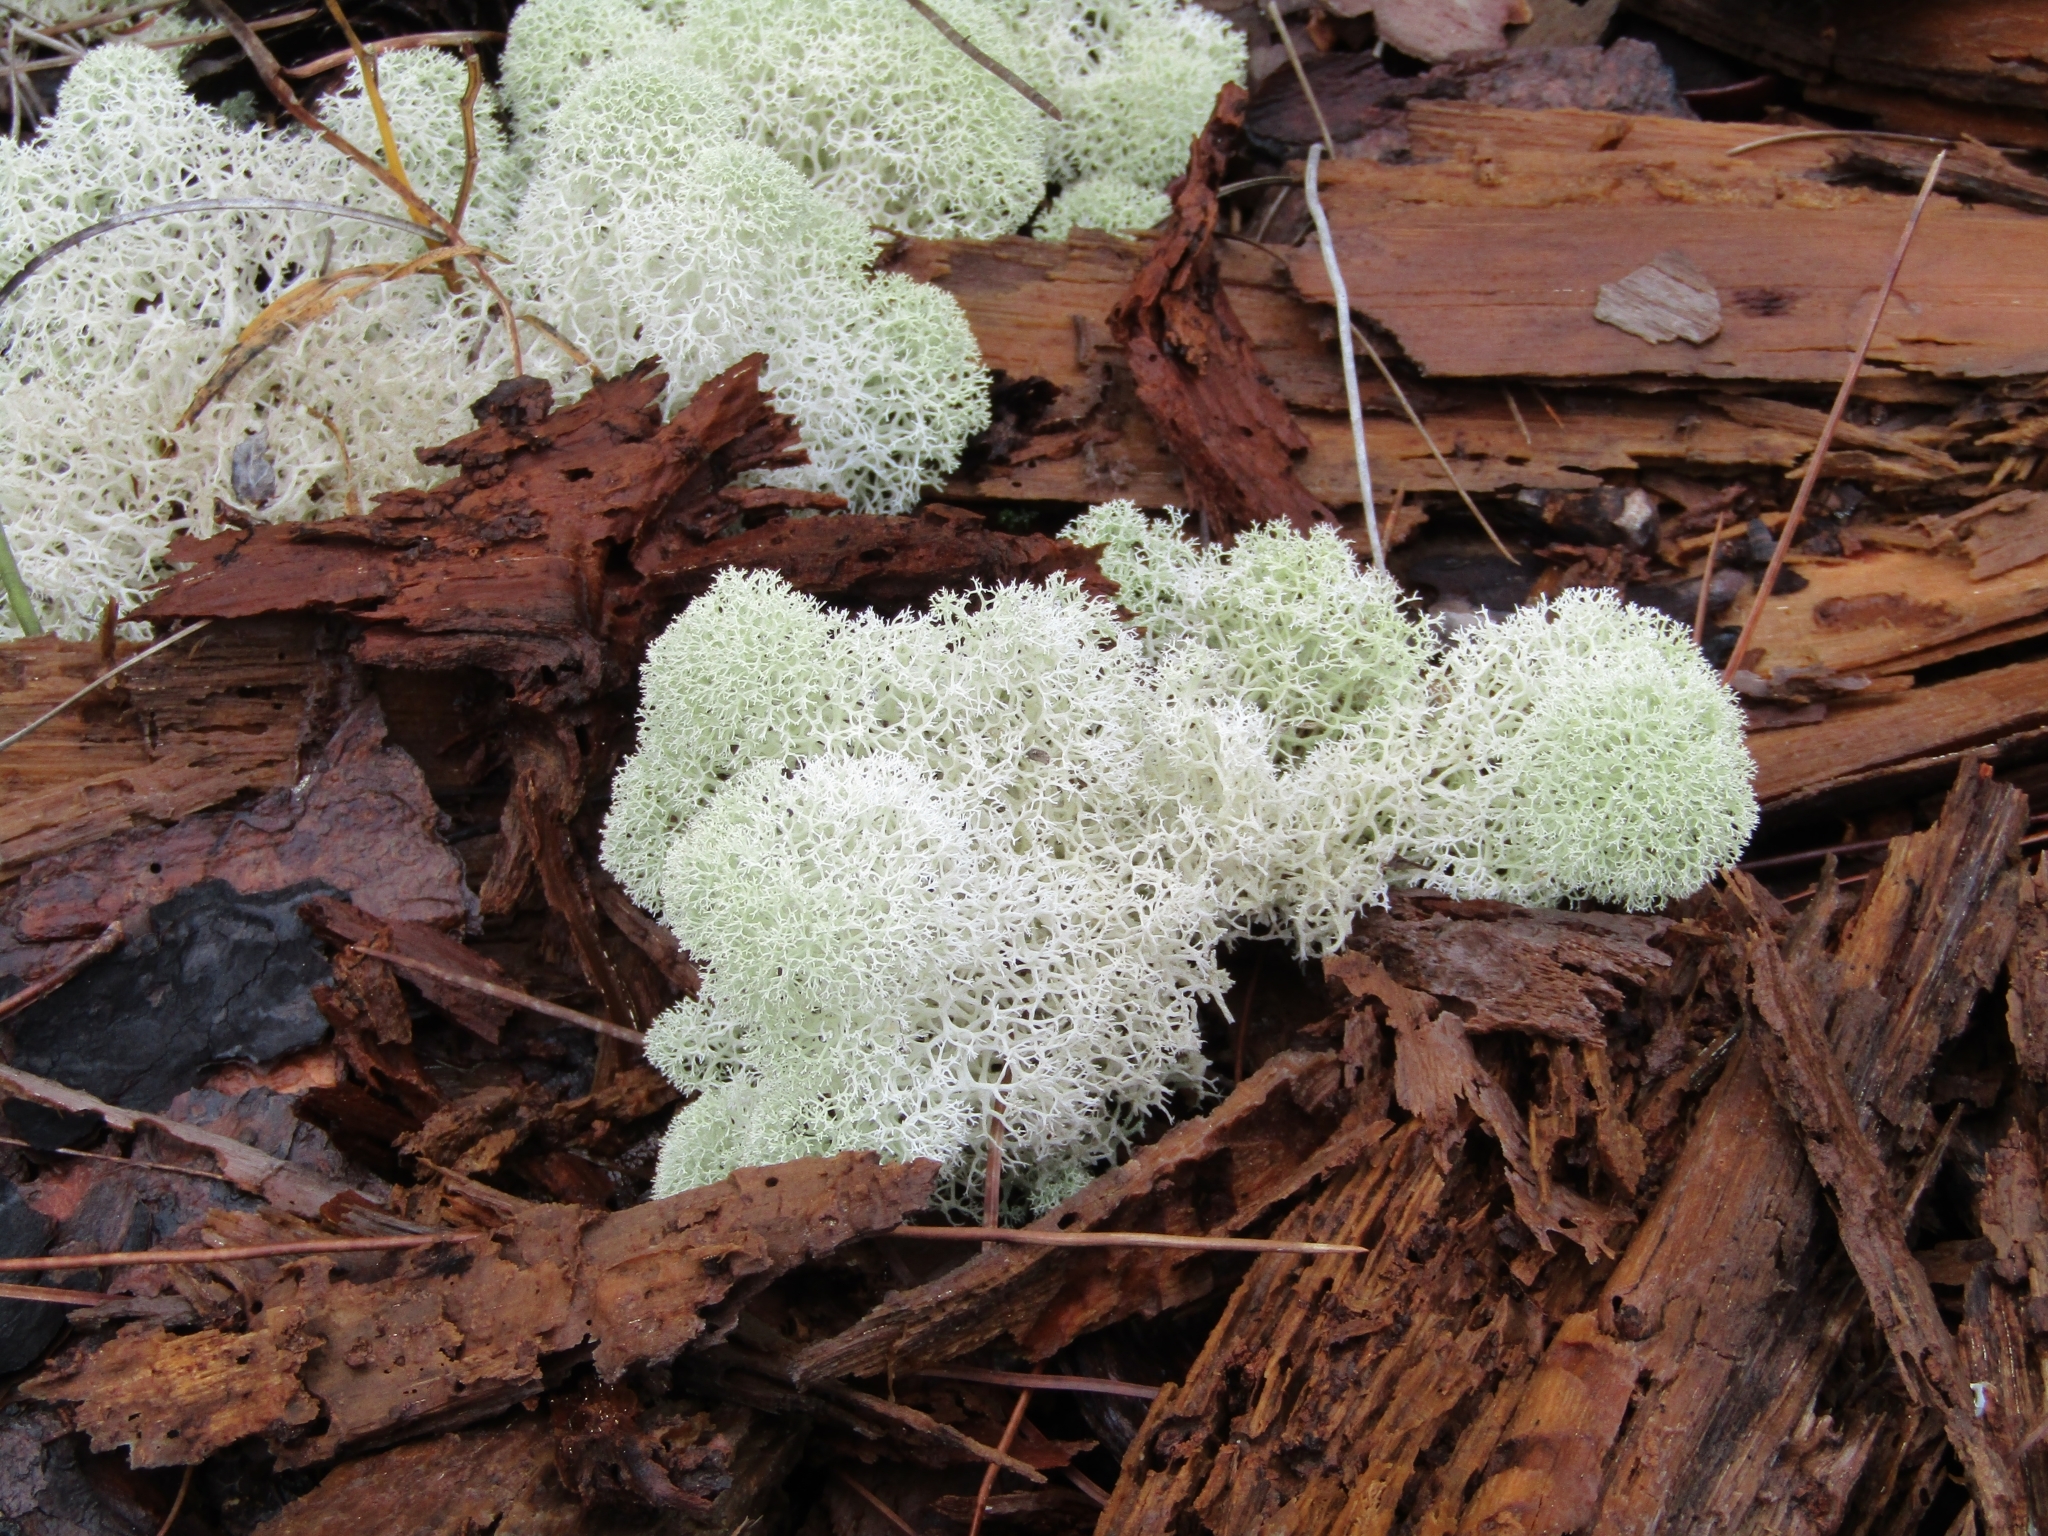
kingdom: Fungi
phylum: Ascomycota
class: Lecanoromycetes
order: Lecanorales
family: Cladoniaceae
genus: Cladonia
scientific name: Cladonia evansii
